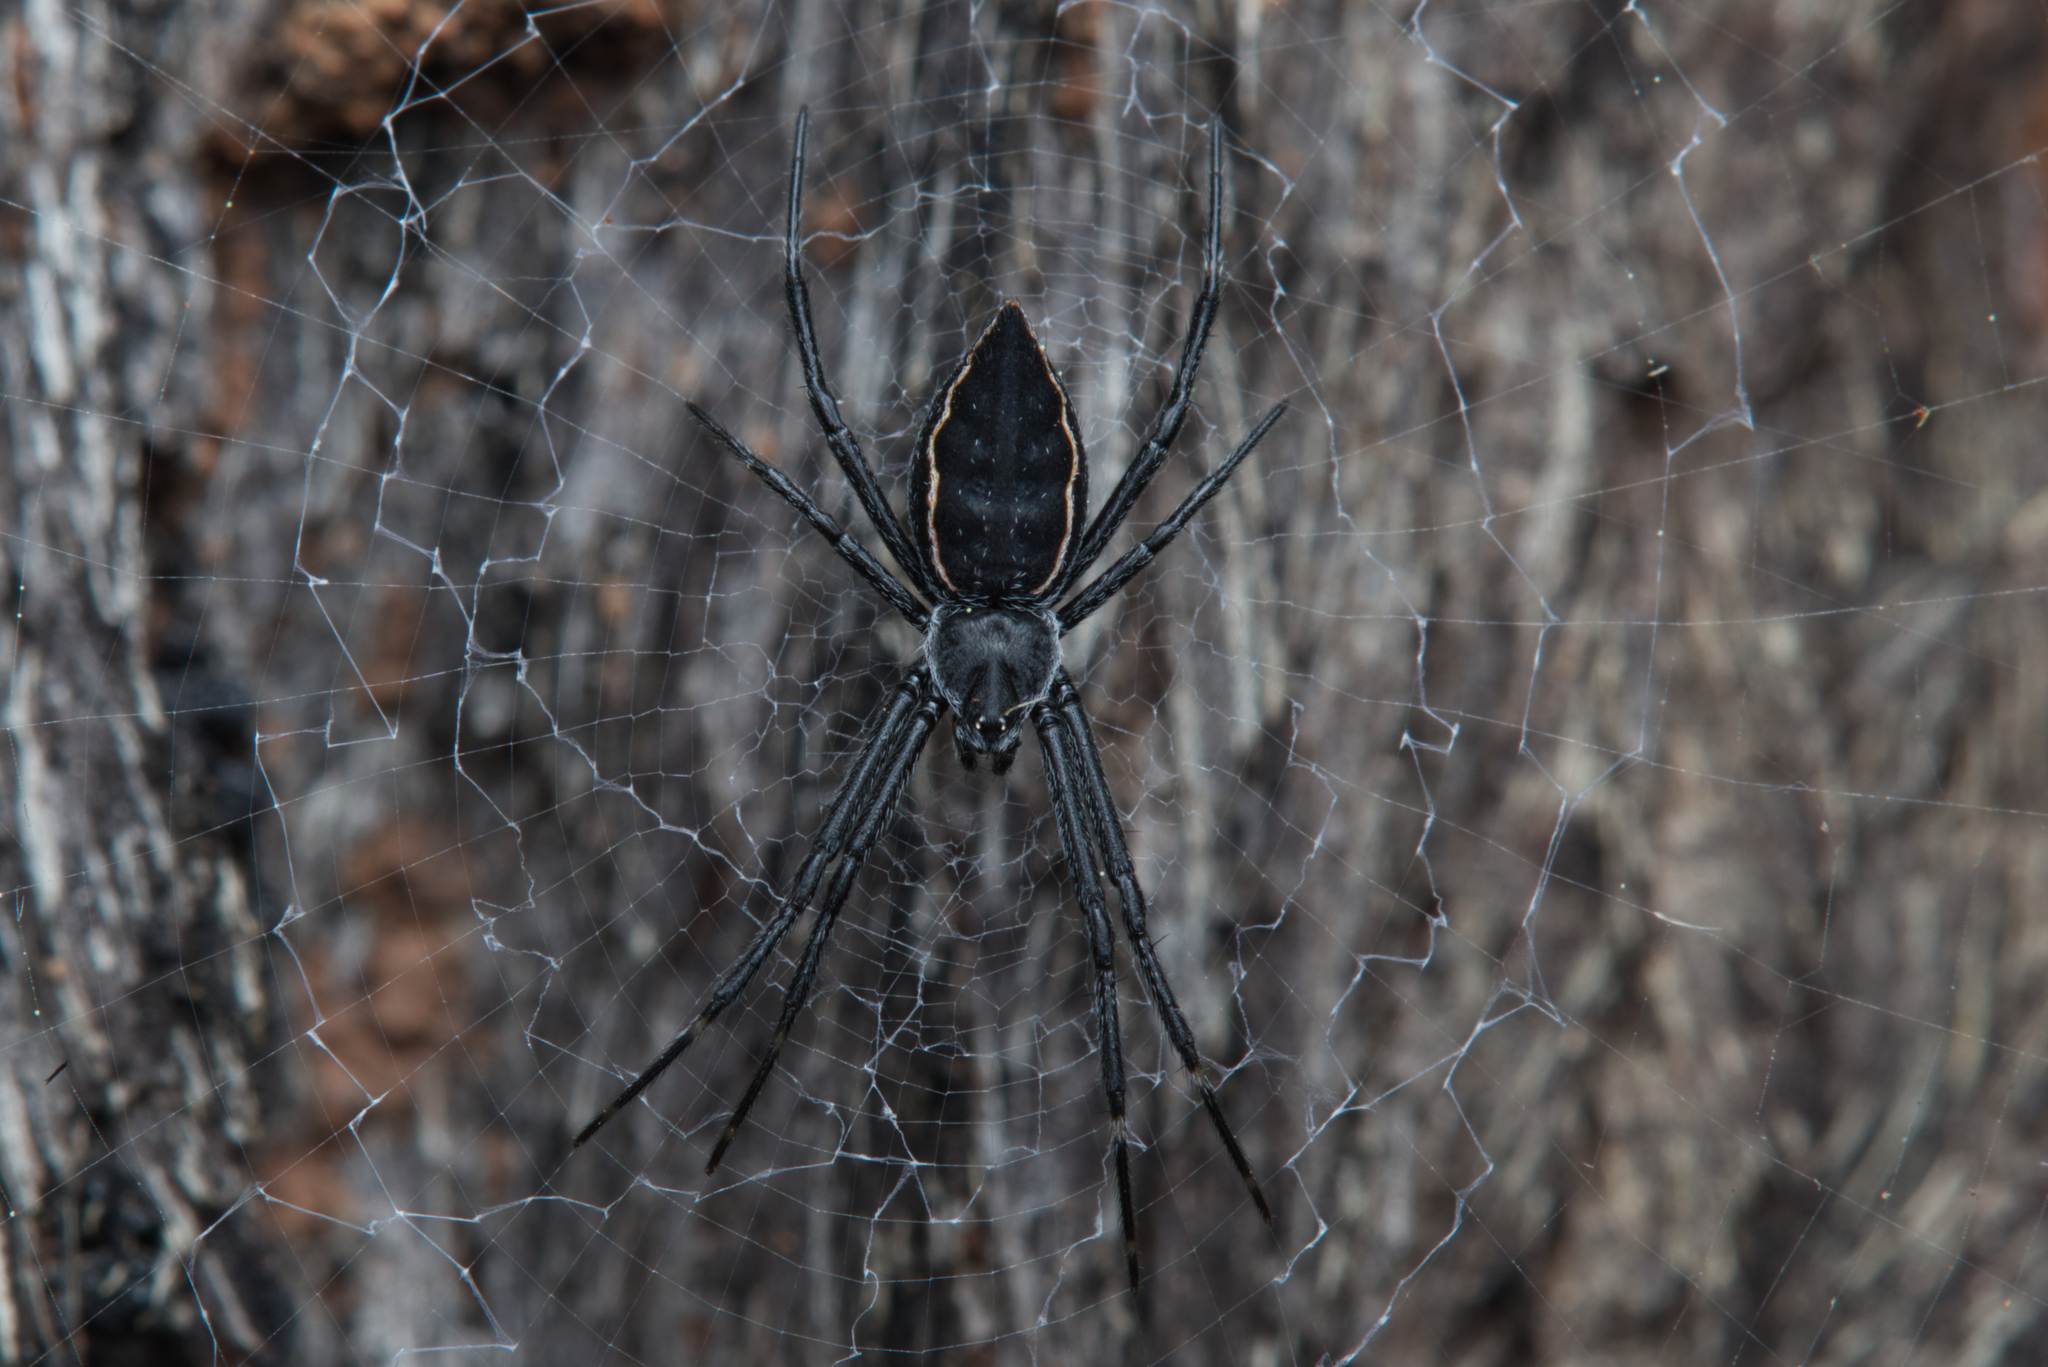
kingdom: Animalia
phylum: Arthropoda
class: Arachnida
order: Araneae
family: Araneidae
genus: Argiope
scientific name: Argiope ocyaloides
